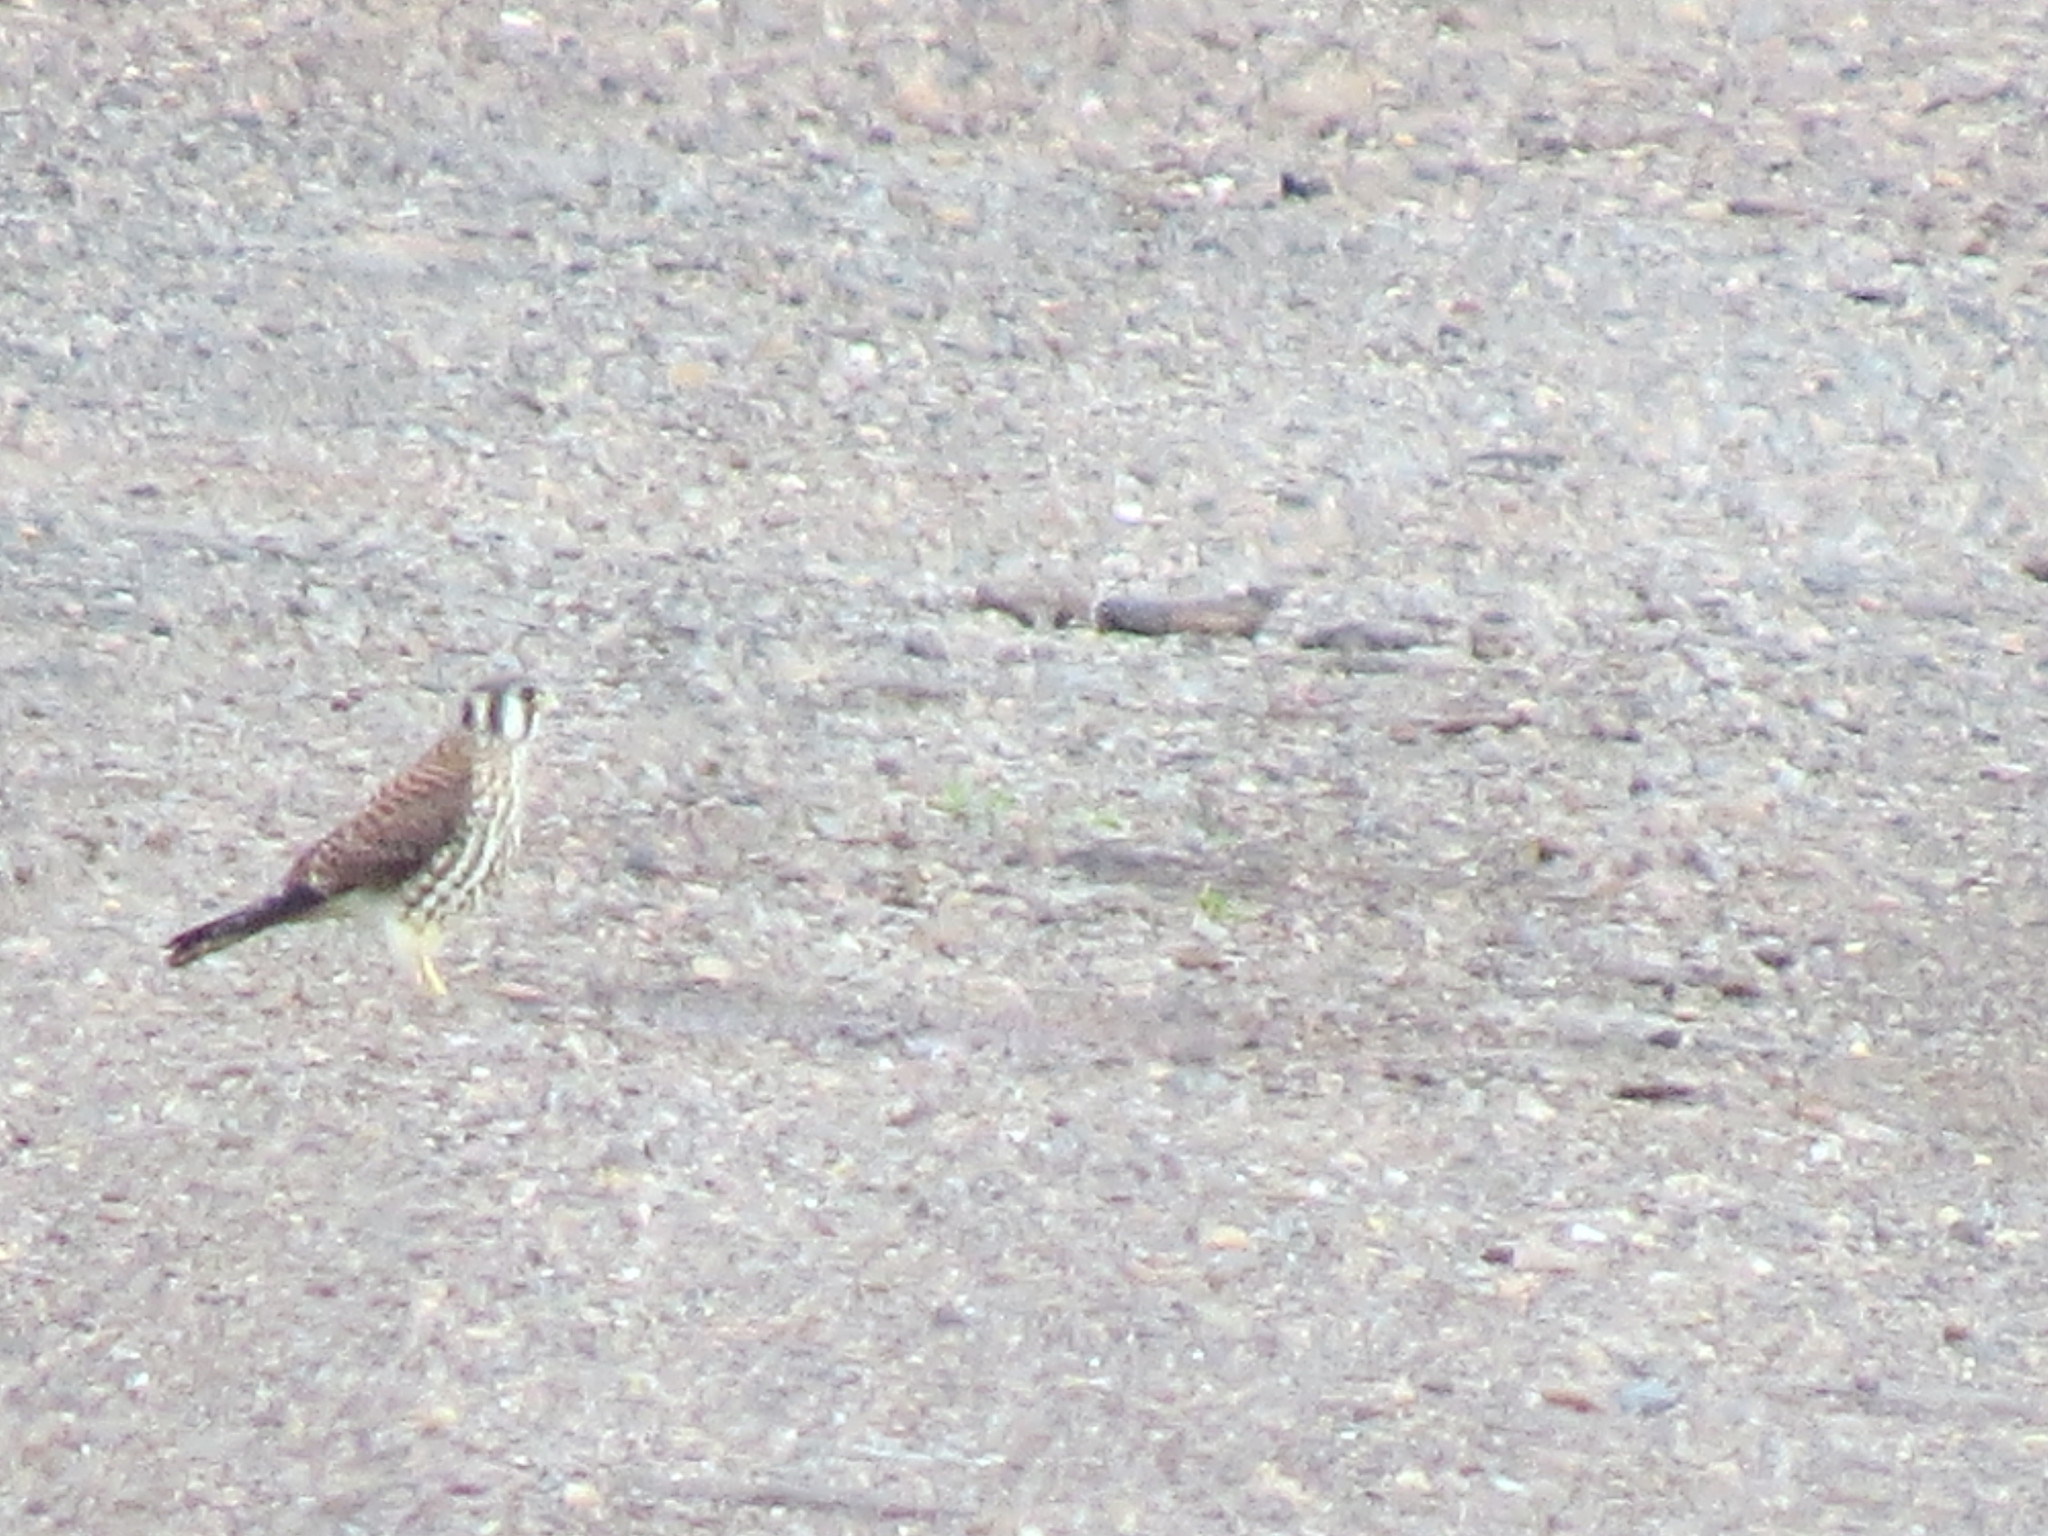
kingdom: Animalia
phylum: Chordata
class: Aves
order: Falconiformes
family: Falconidae
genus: Falco
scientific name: Falco sparverius
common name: American kestrel
